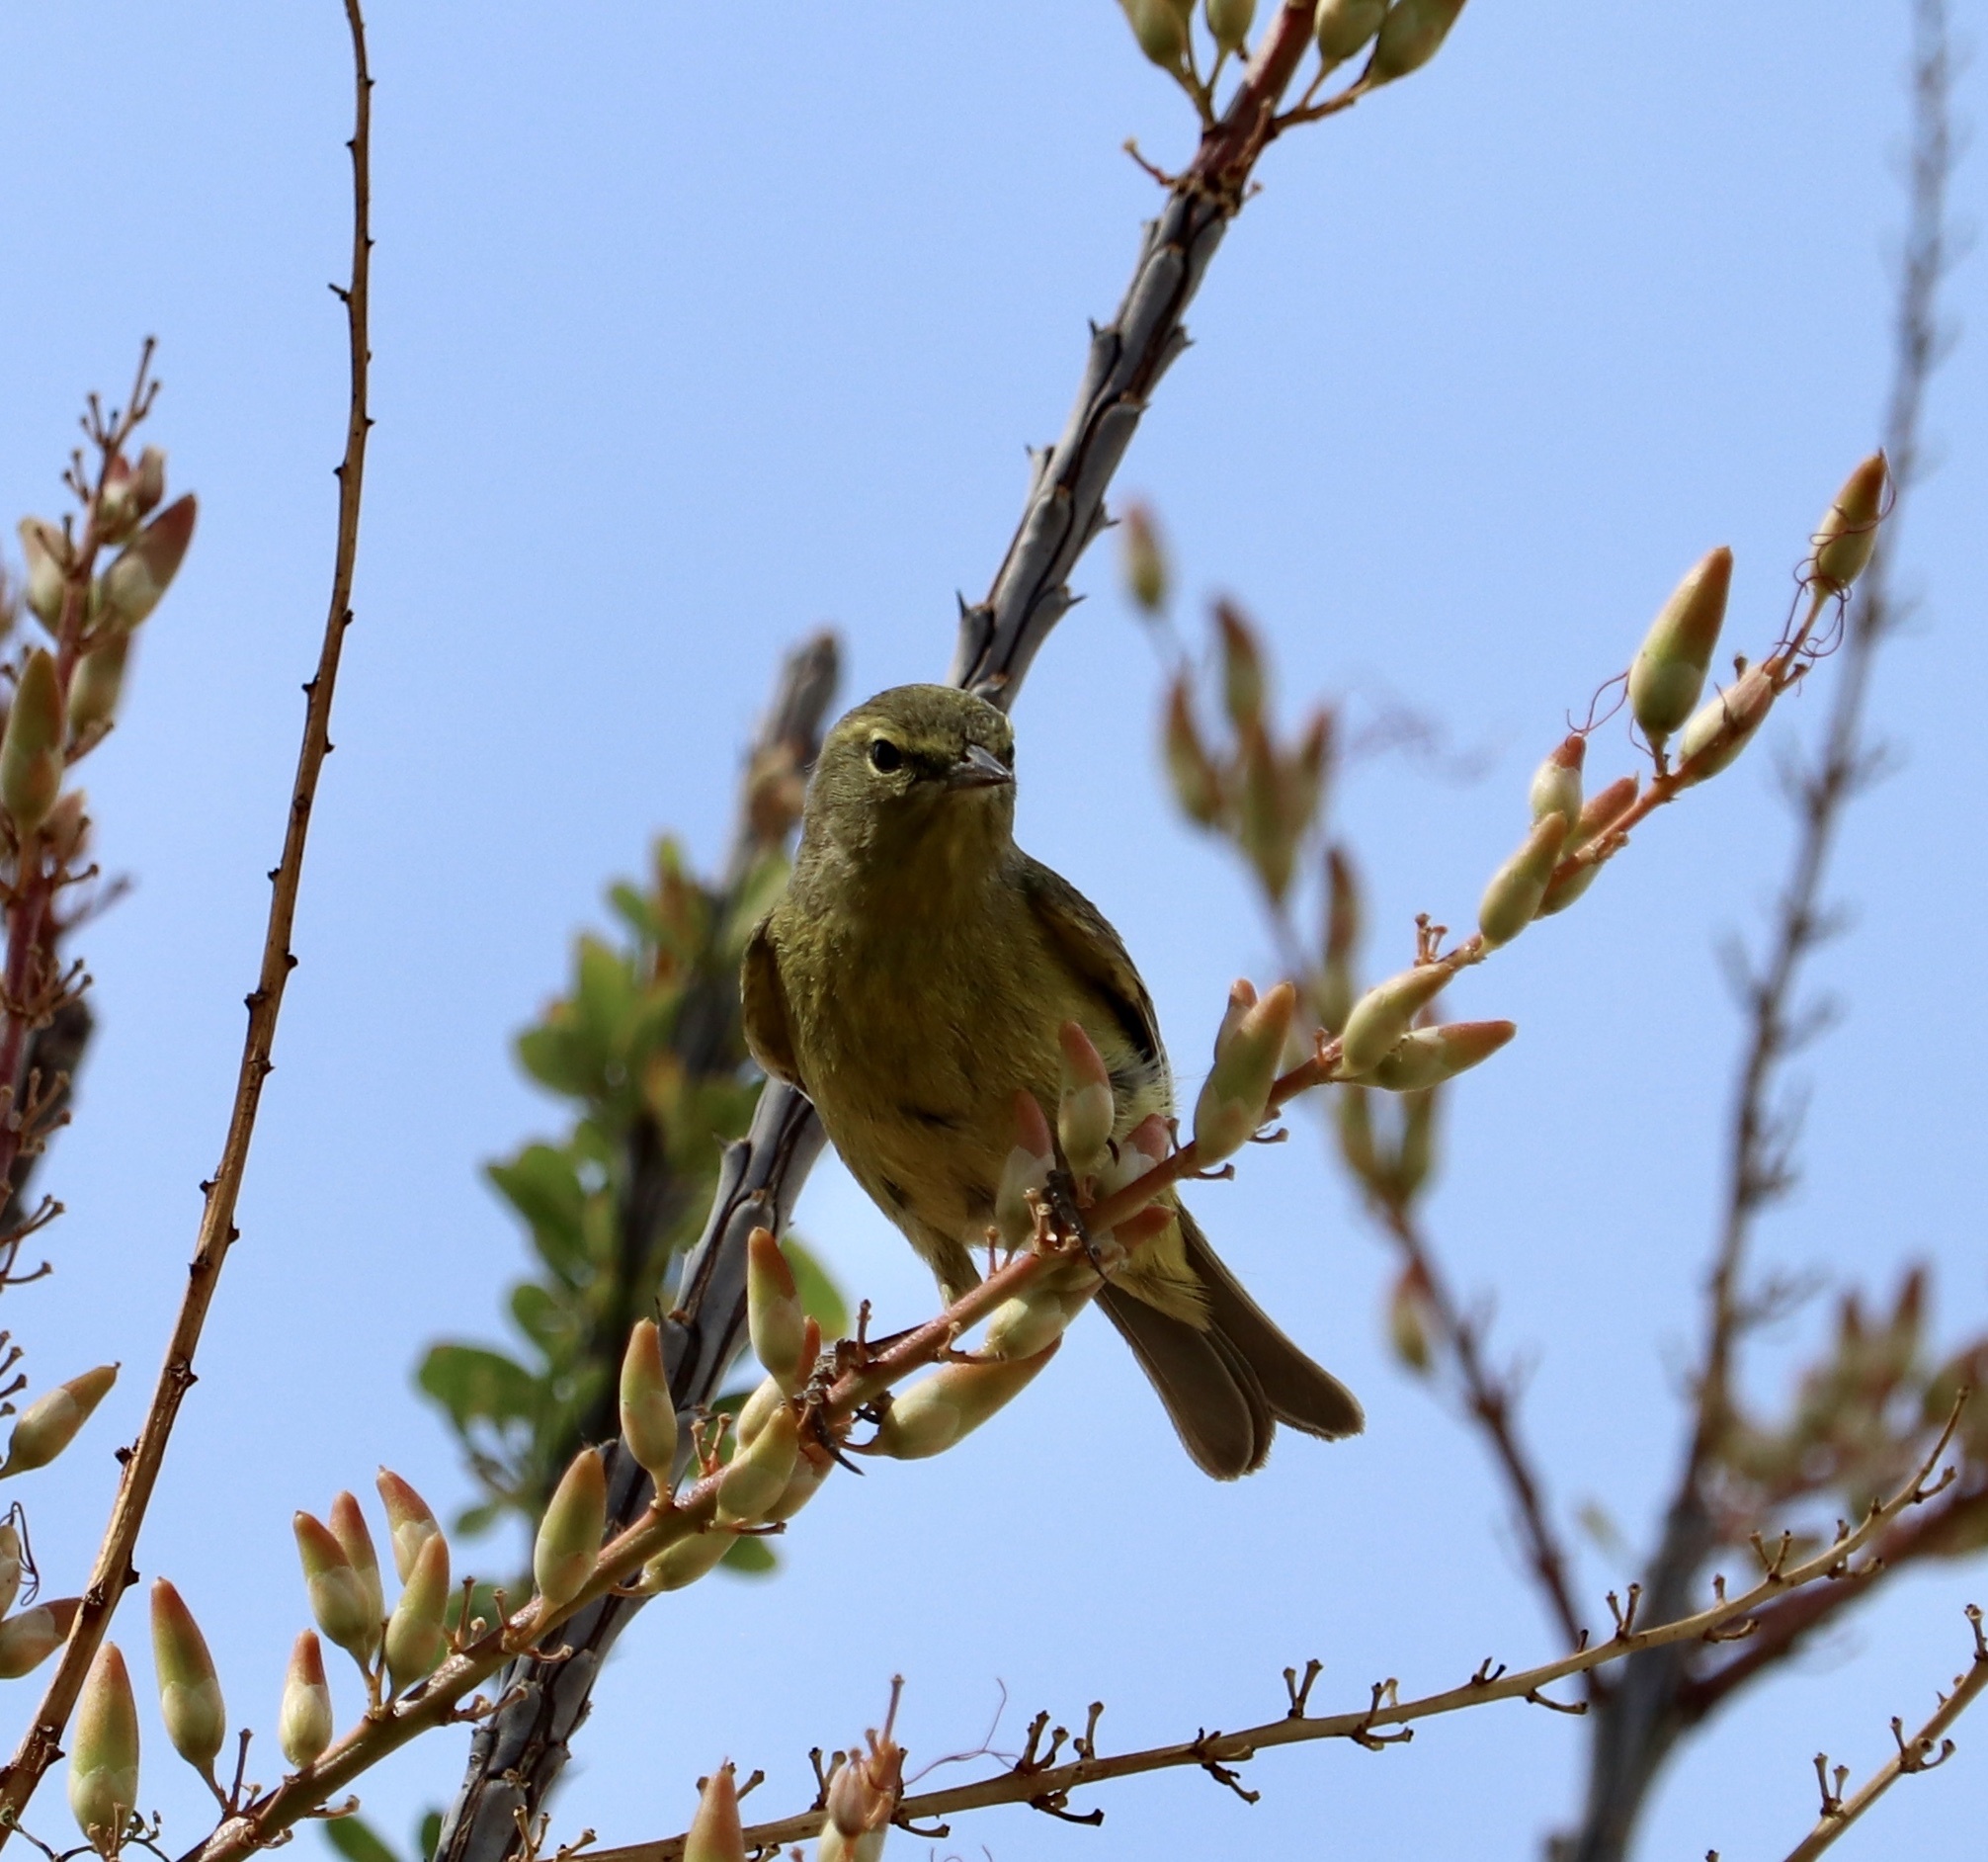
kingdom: Animalia
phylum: Chordata
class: Aves
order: Passeriformes
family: Parulidae
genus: Leiothlypis
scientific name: Leiothlypis celata
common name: Orange-crowned warbler
